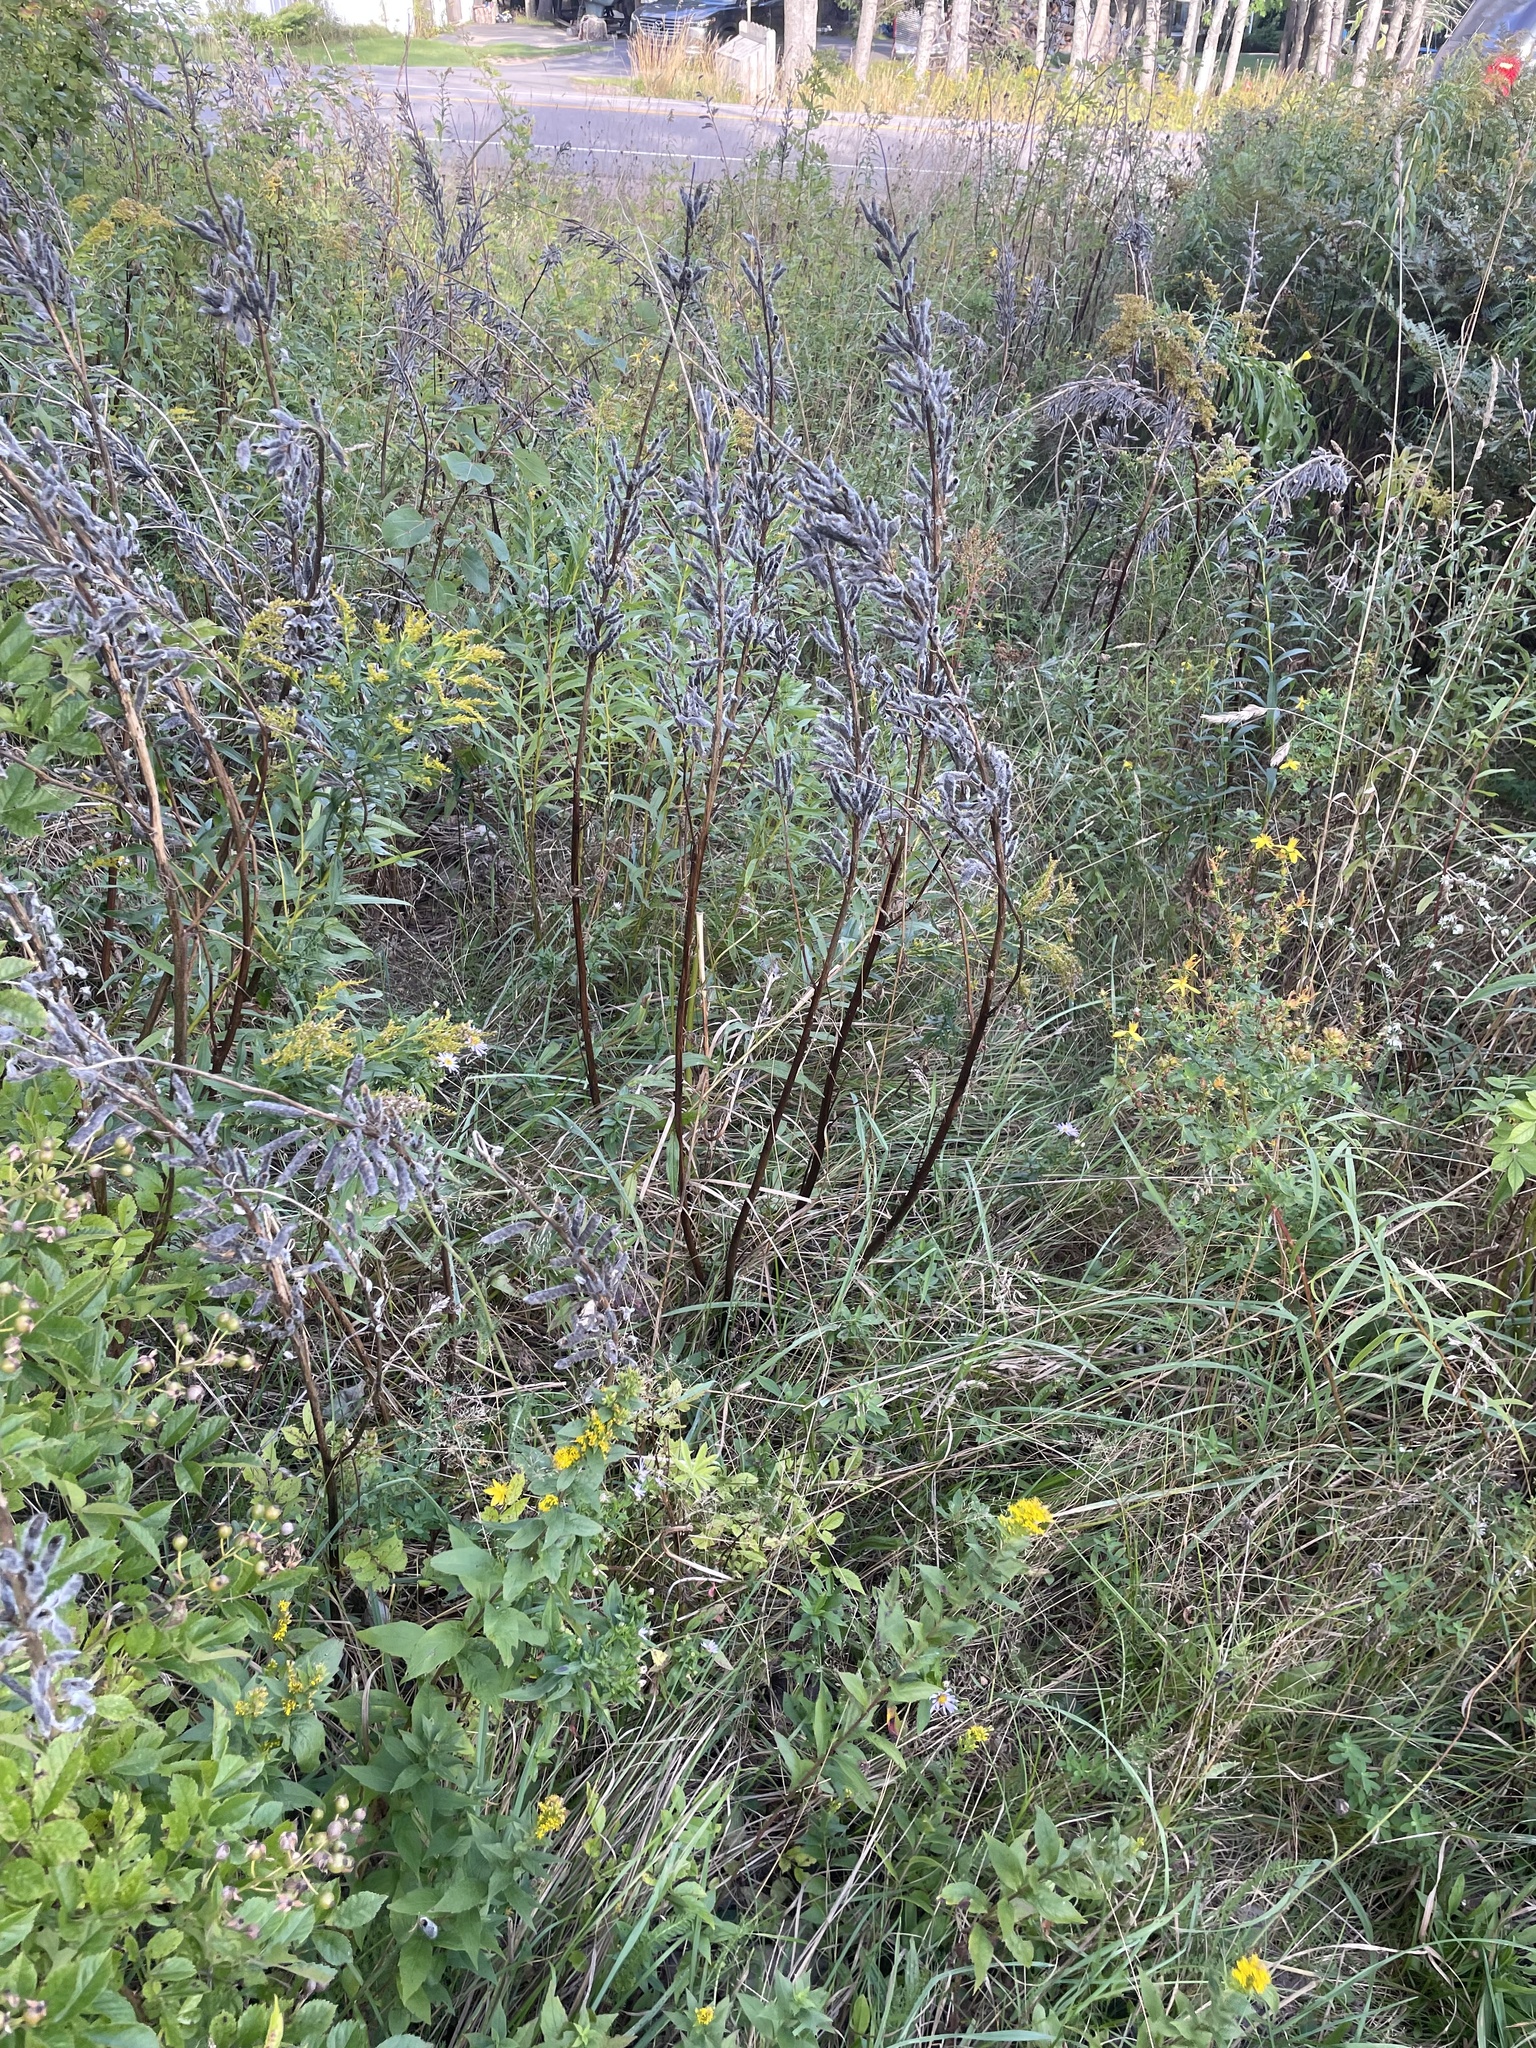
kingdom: Plantae
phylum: Tracheophyta
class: Magnoliopsida
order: Fabales
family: Fabaceae
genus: Lupinus
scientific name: Lupinus polyphyllus
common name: Garden lupin
